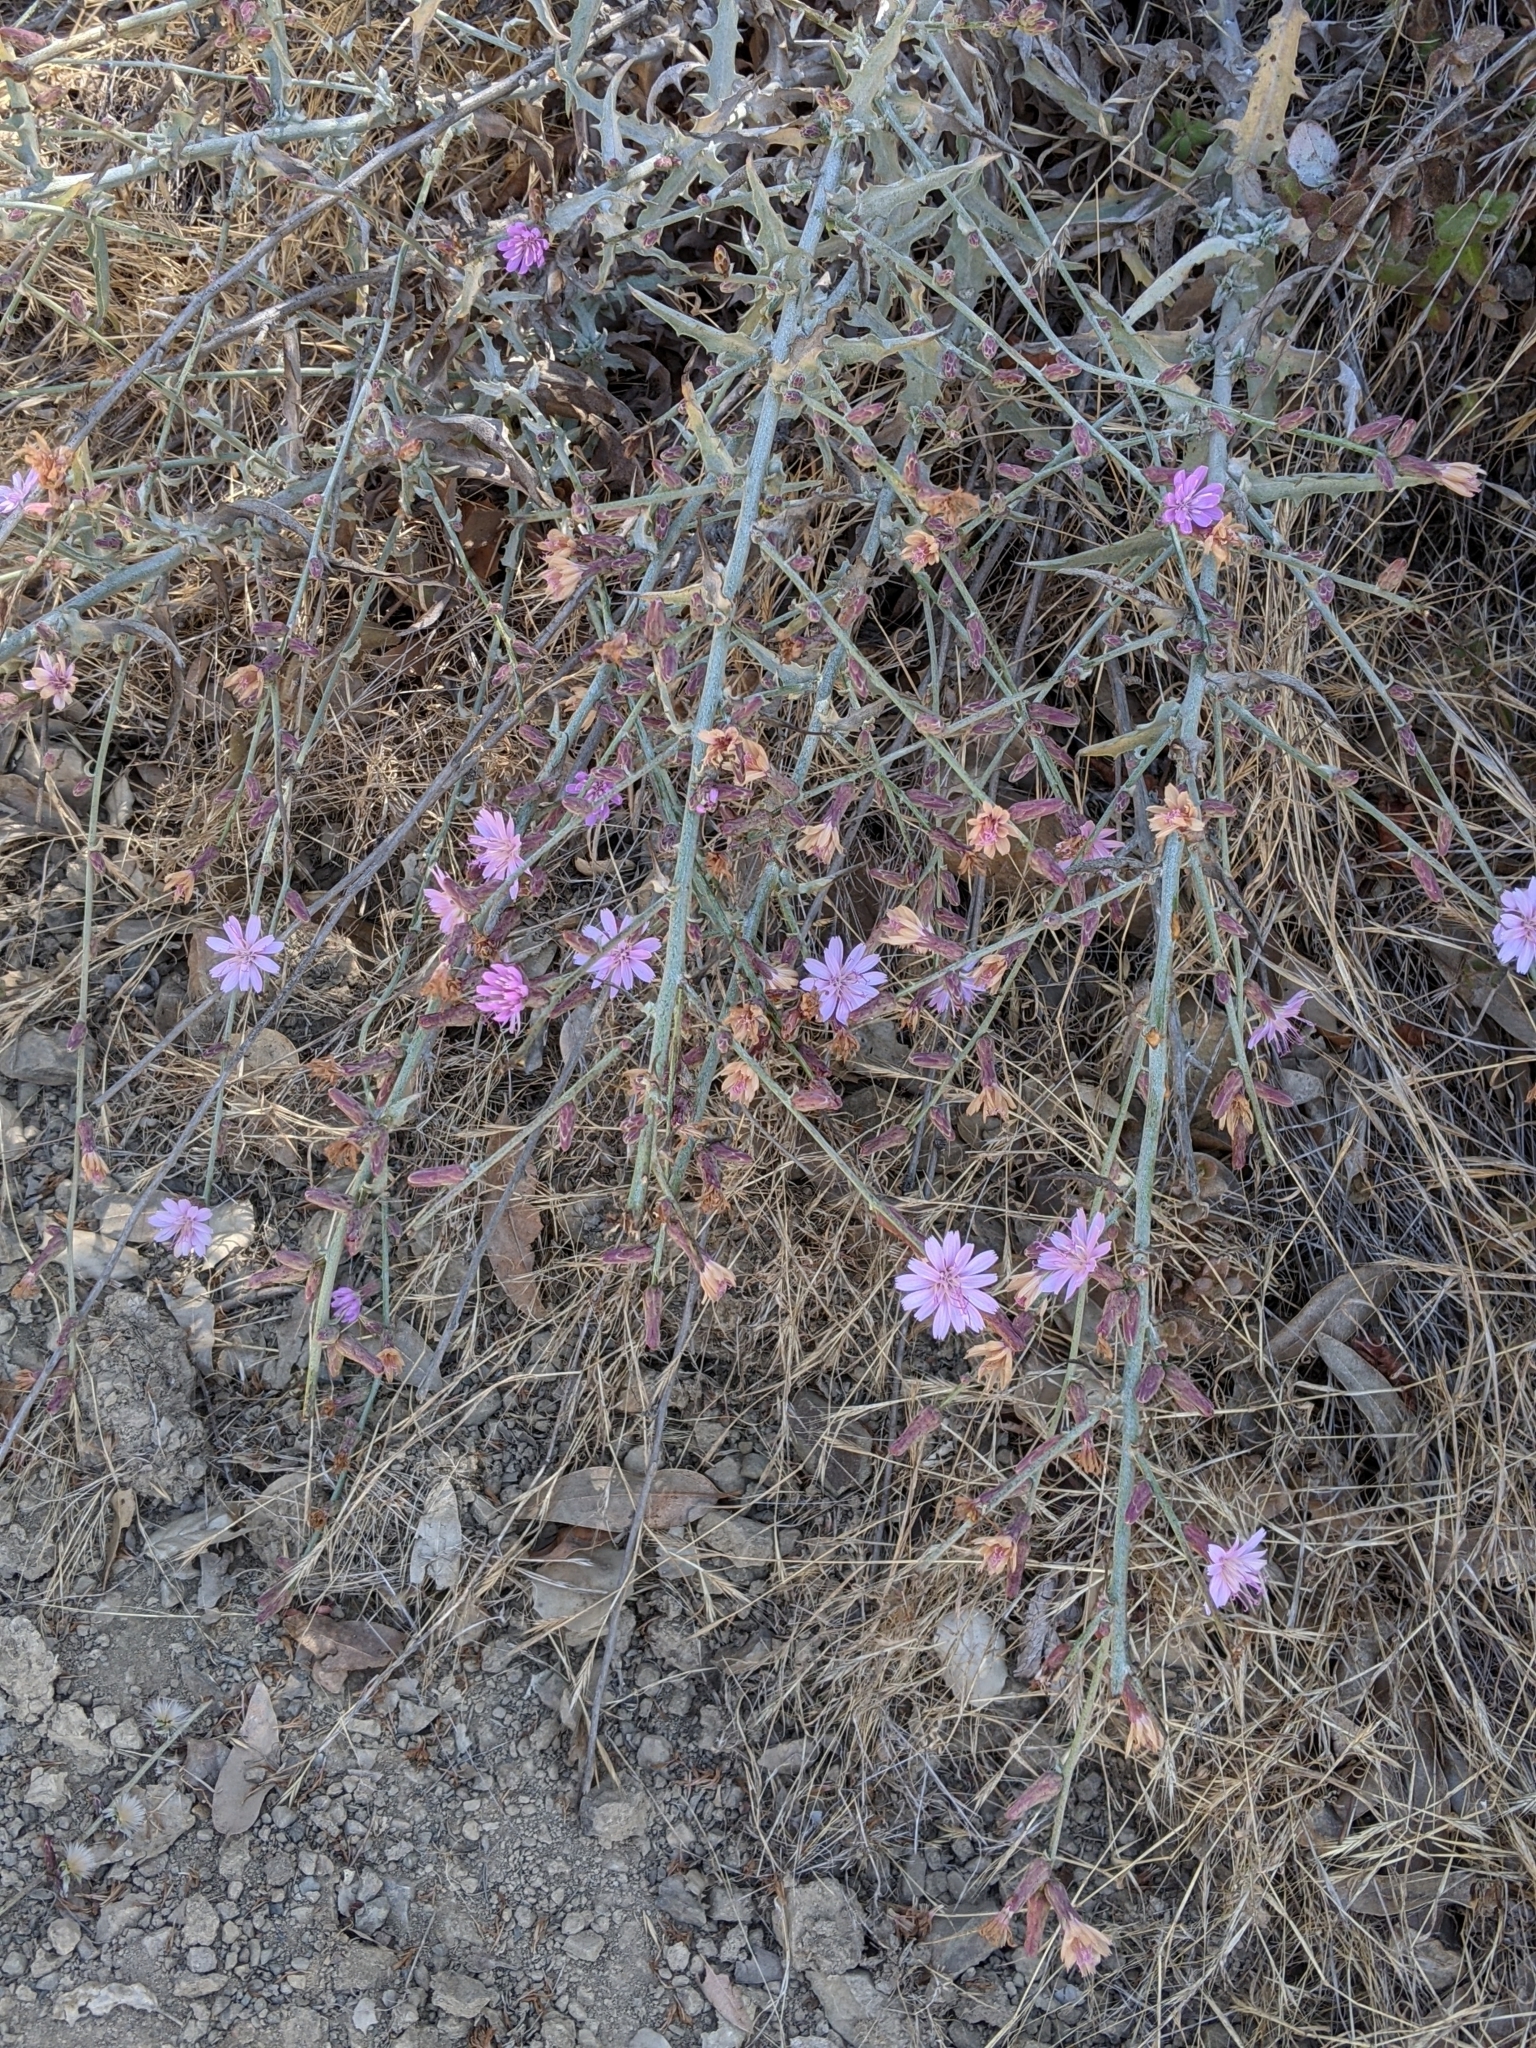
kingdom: Plantae
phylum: Tracheophyta
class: Magnoliopsida
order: Asterales
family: Asteraceae
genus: Stephanomeria
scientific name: Stephanomeria cichoriacea
